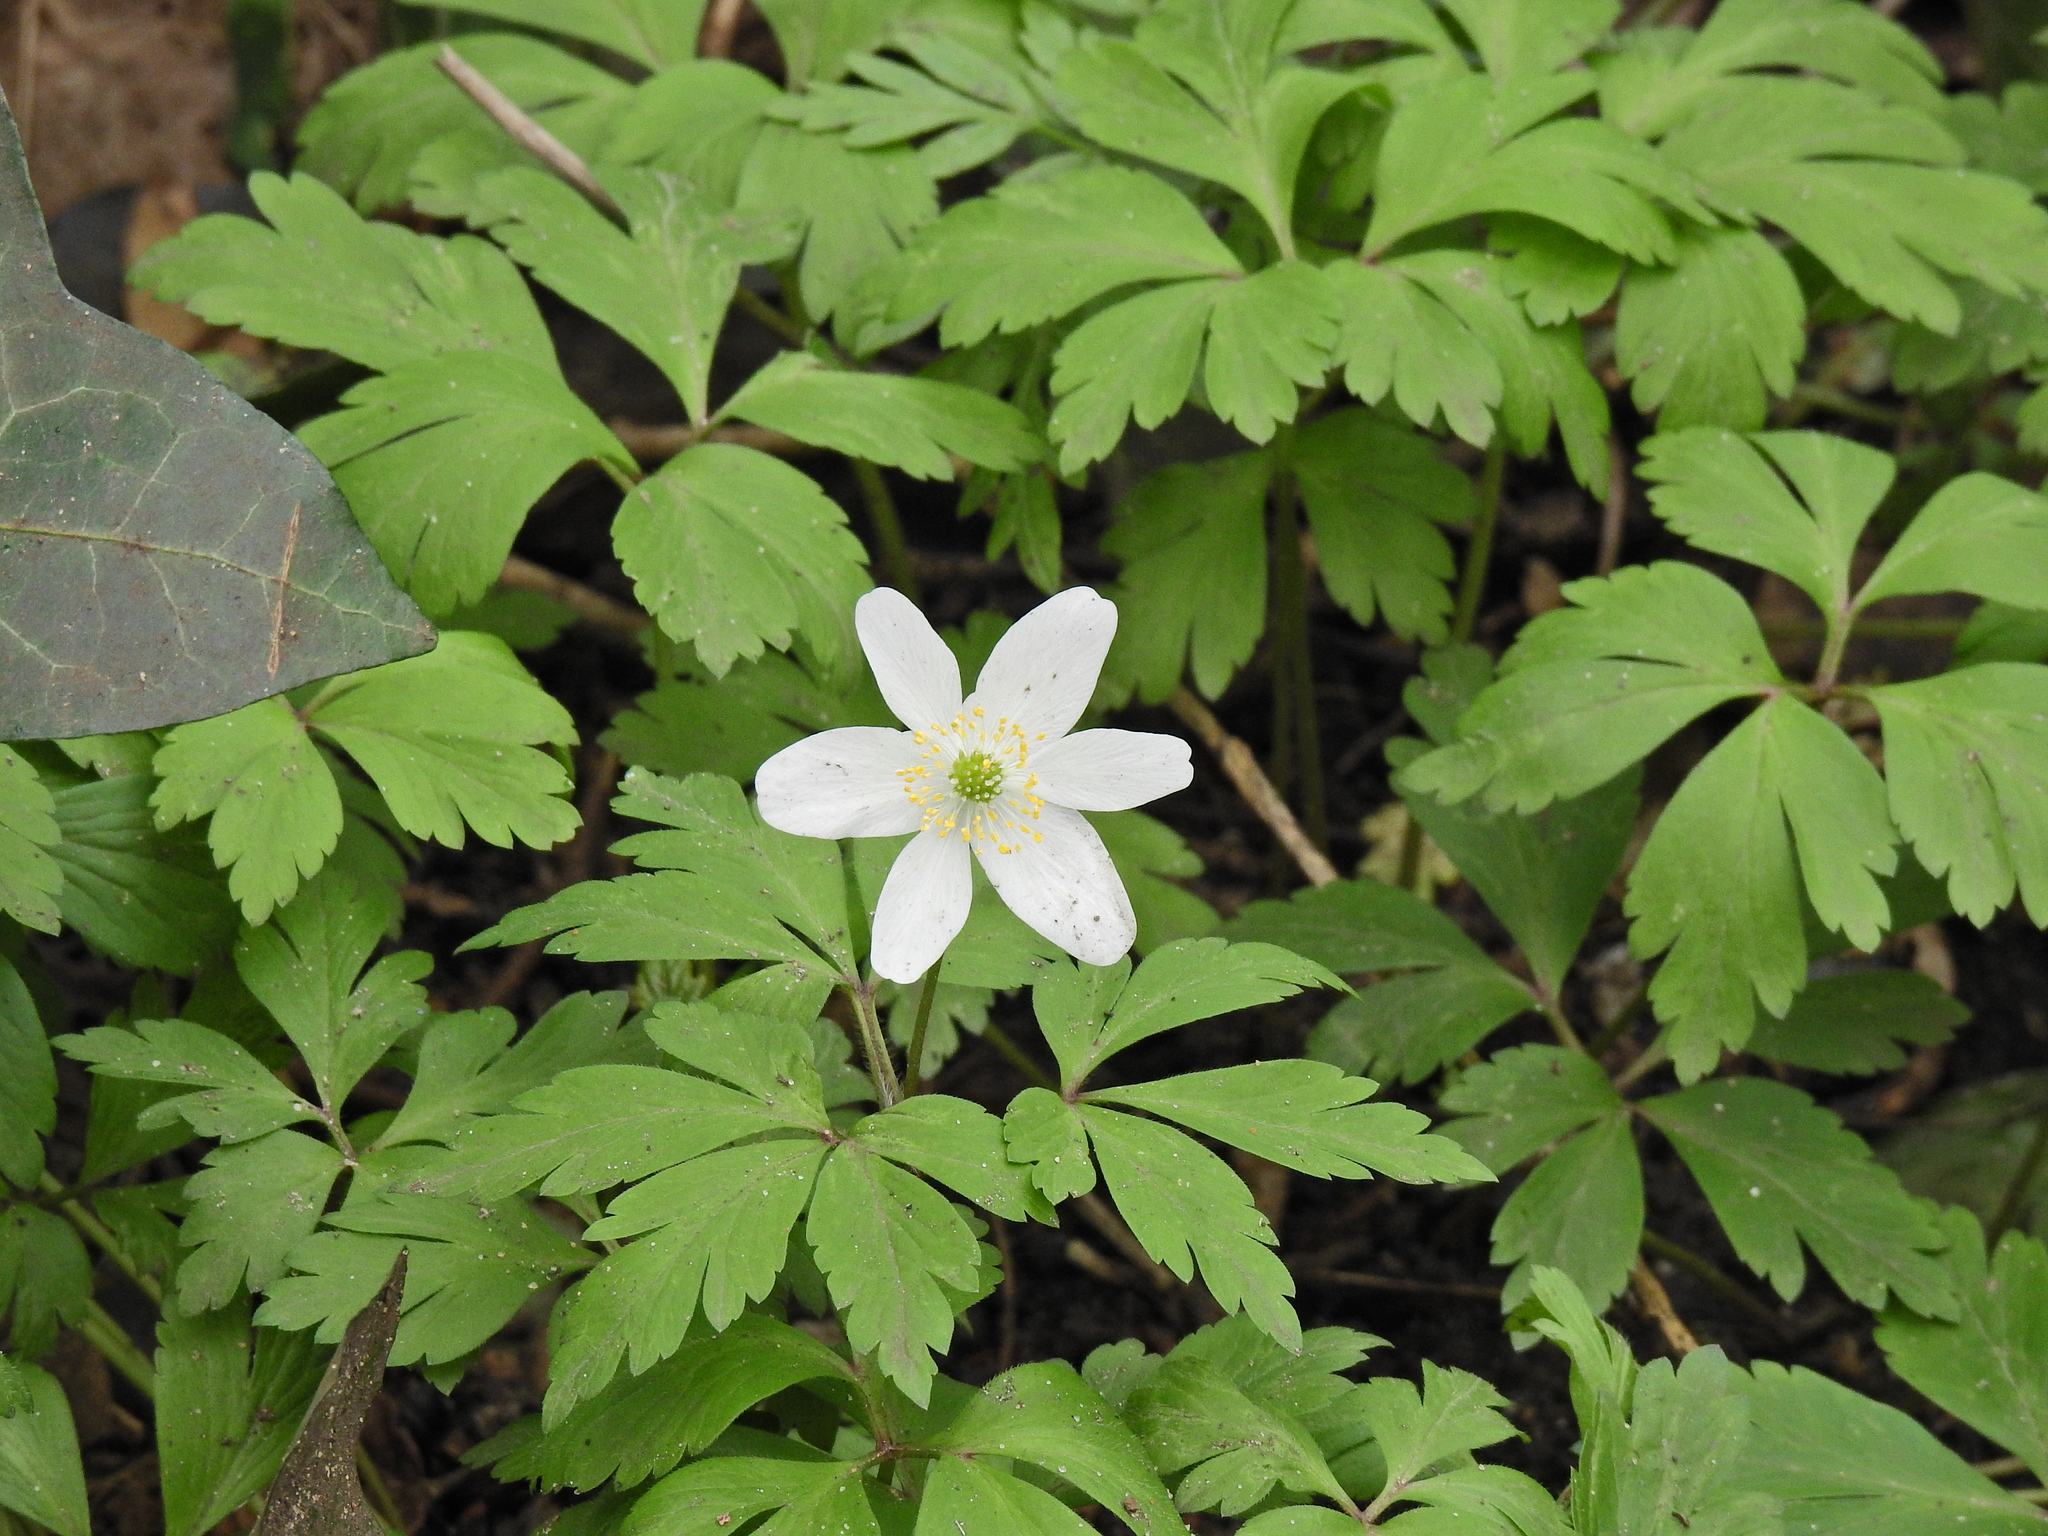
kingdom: Plantae
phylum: Tracheophyta
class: Magnoliopsida
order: Ranunculales
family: Ranunculaceae
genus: Anemone
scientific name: Anemone nemorosa
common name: Wood anemone
